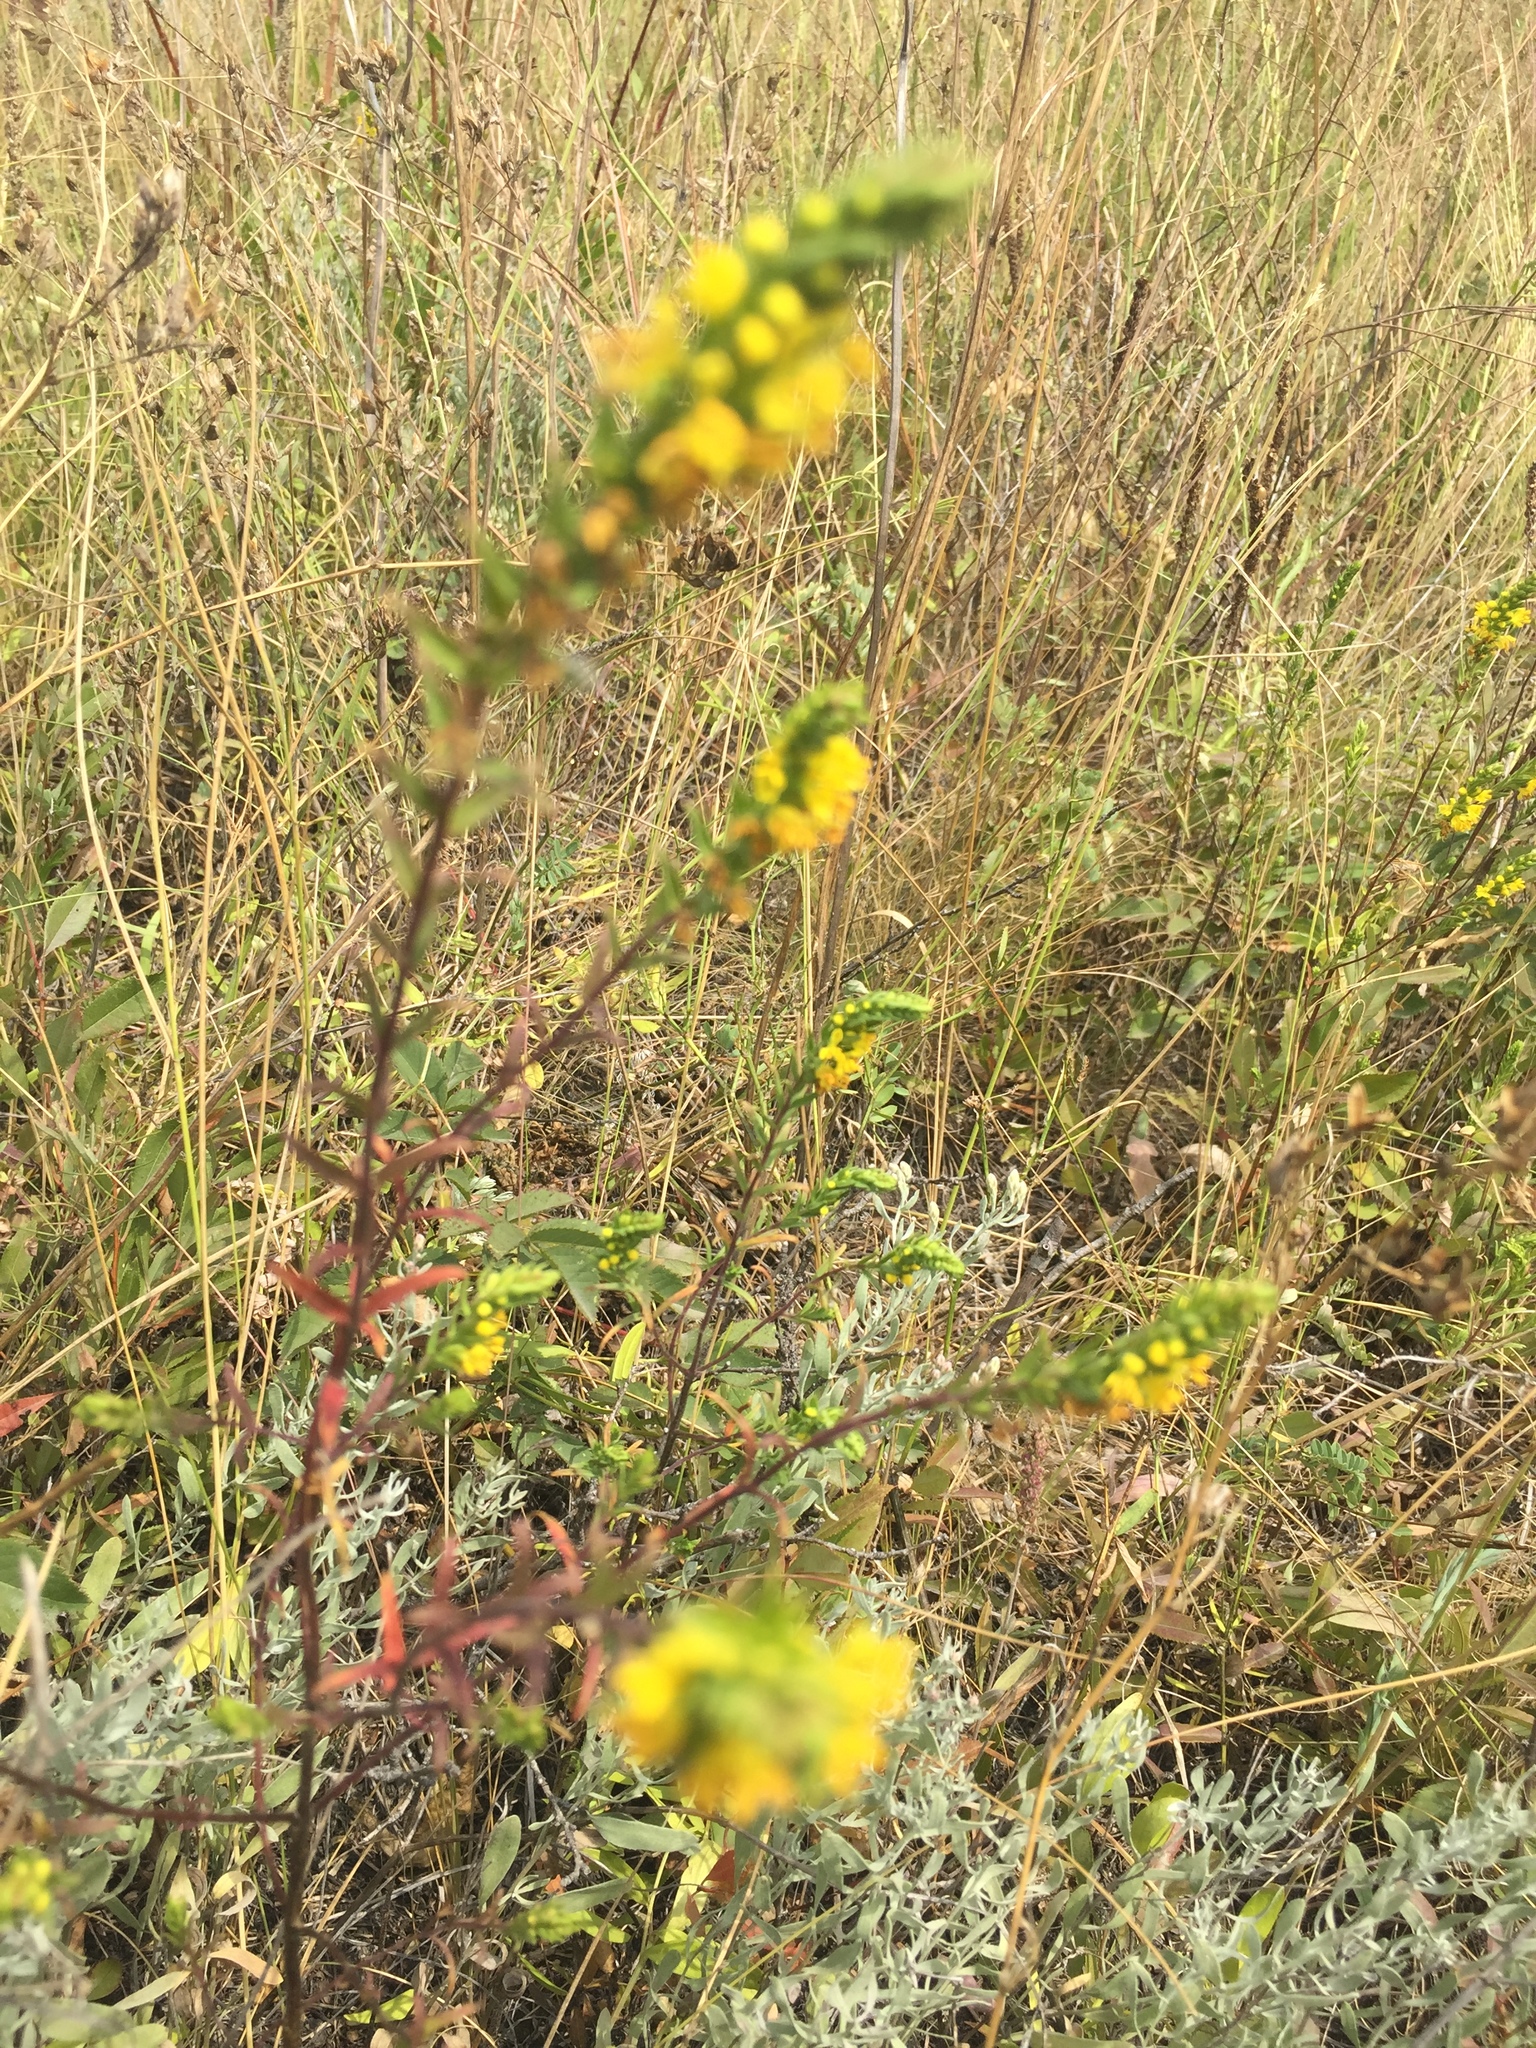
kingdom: Plantae
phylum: Tracheophyta
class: Magnoliopsida
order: Lamiales
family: Orobanchaceae
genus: Odontites
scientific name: Odontites luteus
